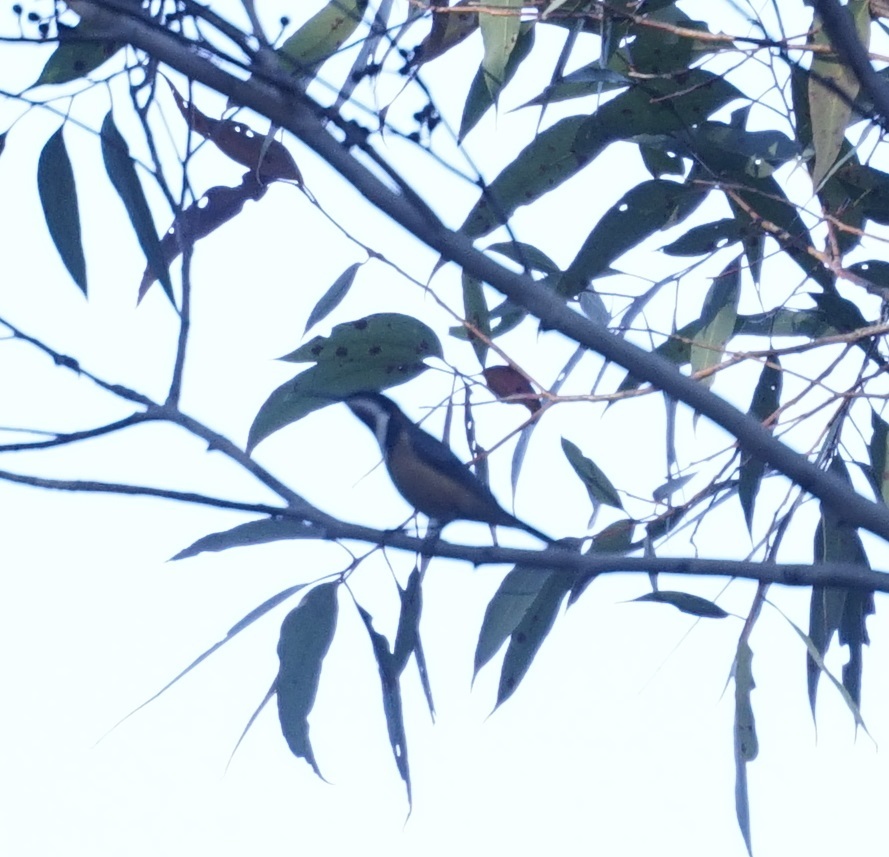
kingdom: Animalia
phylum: Chordata
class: Aves
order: Passeriformes
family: Meliphagidae
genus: Acanthorhynchus
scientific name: Acanthorhynchus tenuirostris
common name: Eastern spinebill
